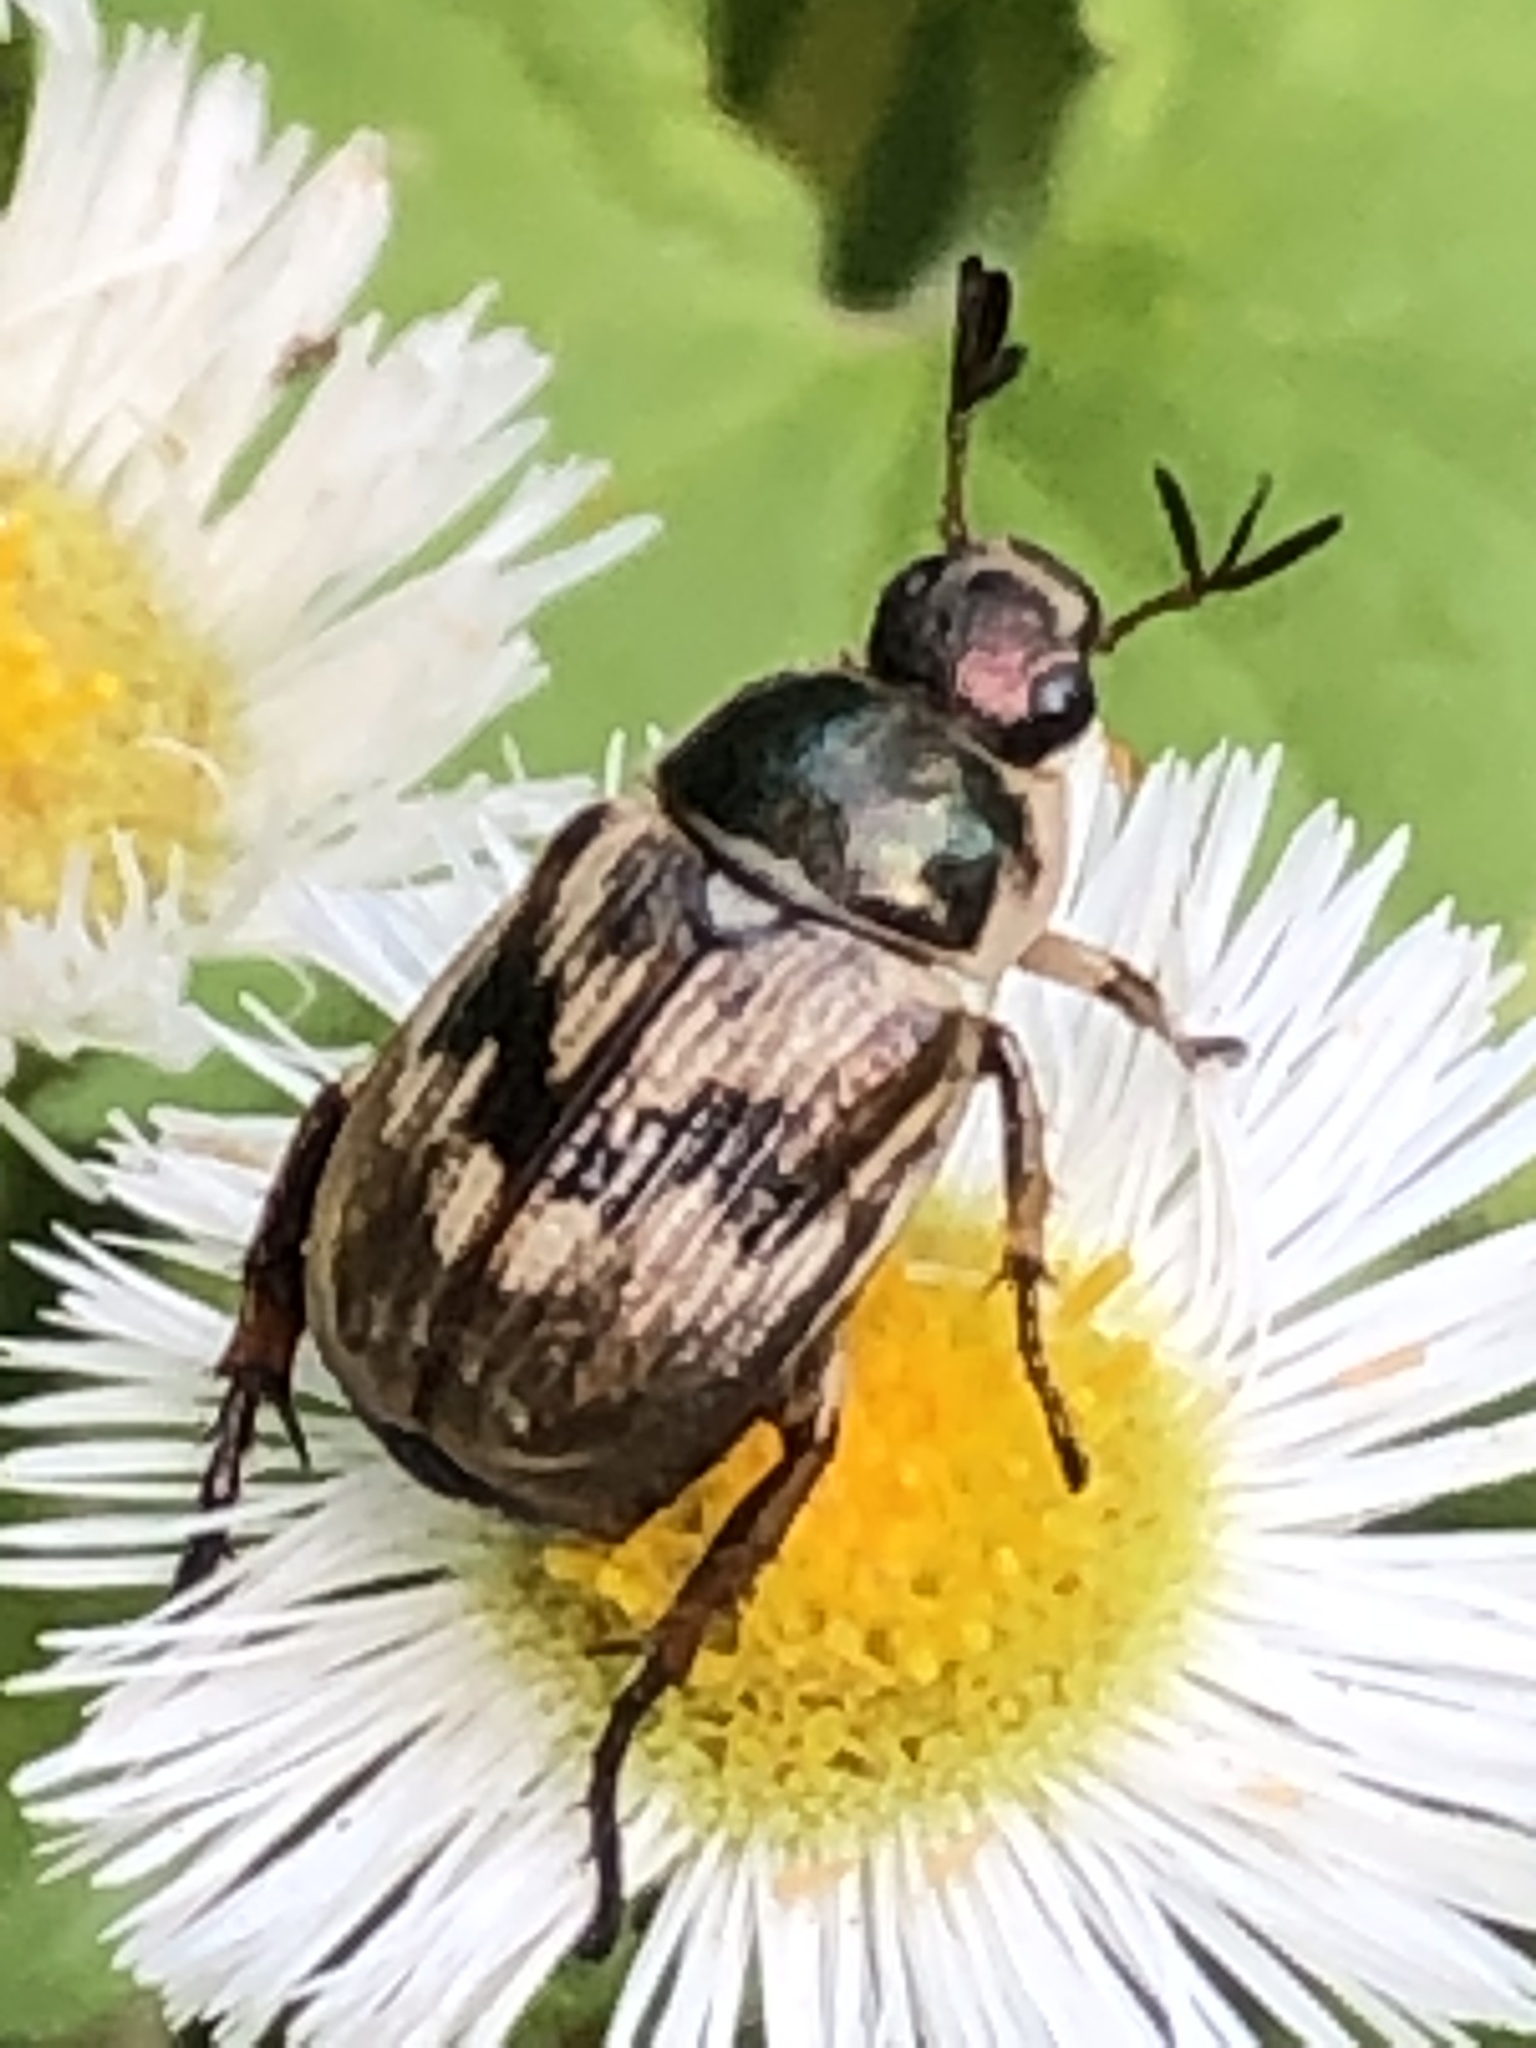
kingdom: Animalia
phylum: Arthropoda
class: Insecta
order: Coleoptera
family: Scarabaeidae
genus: Exomala
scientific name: Exomala orientalis
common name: Oriental beetle
